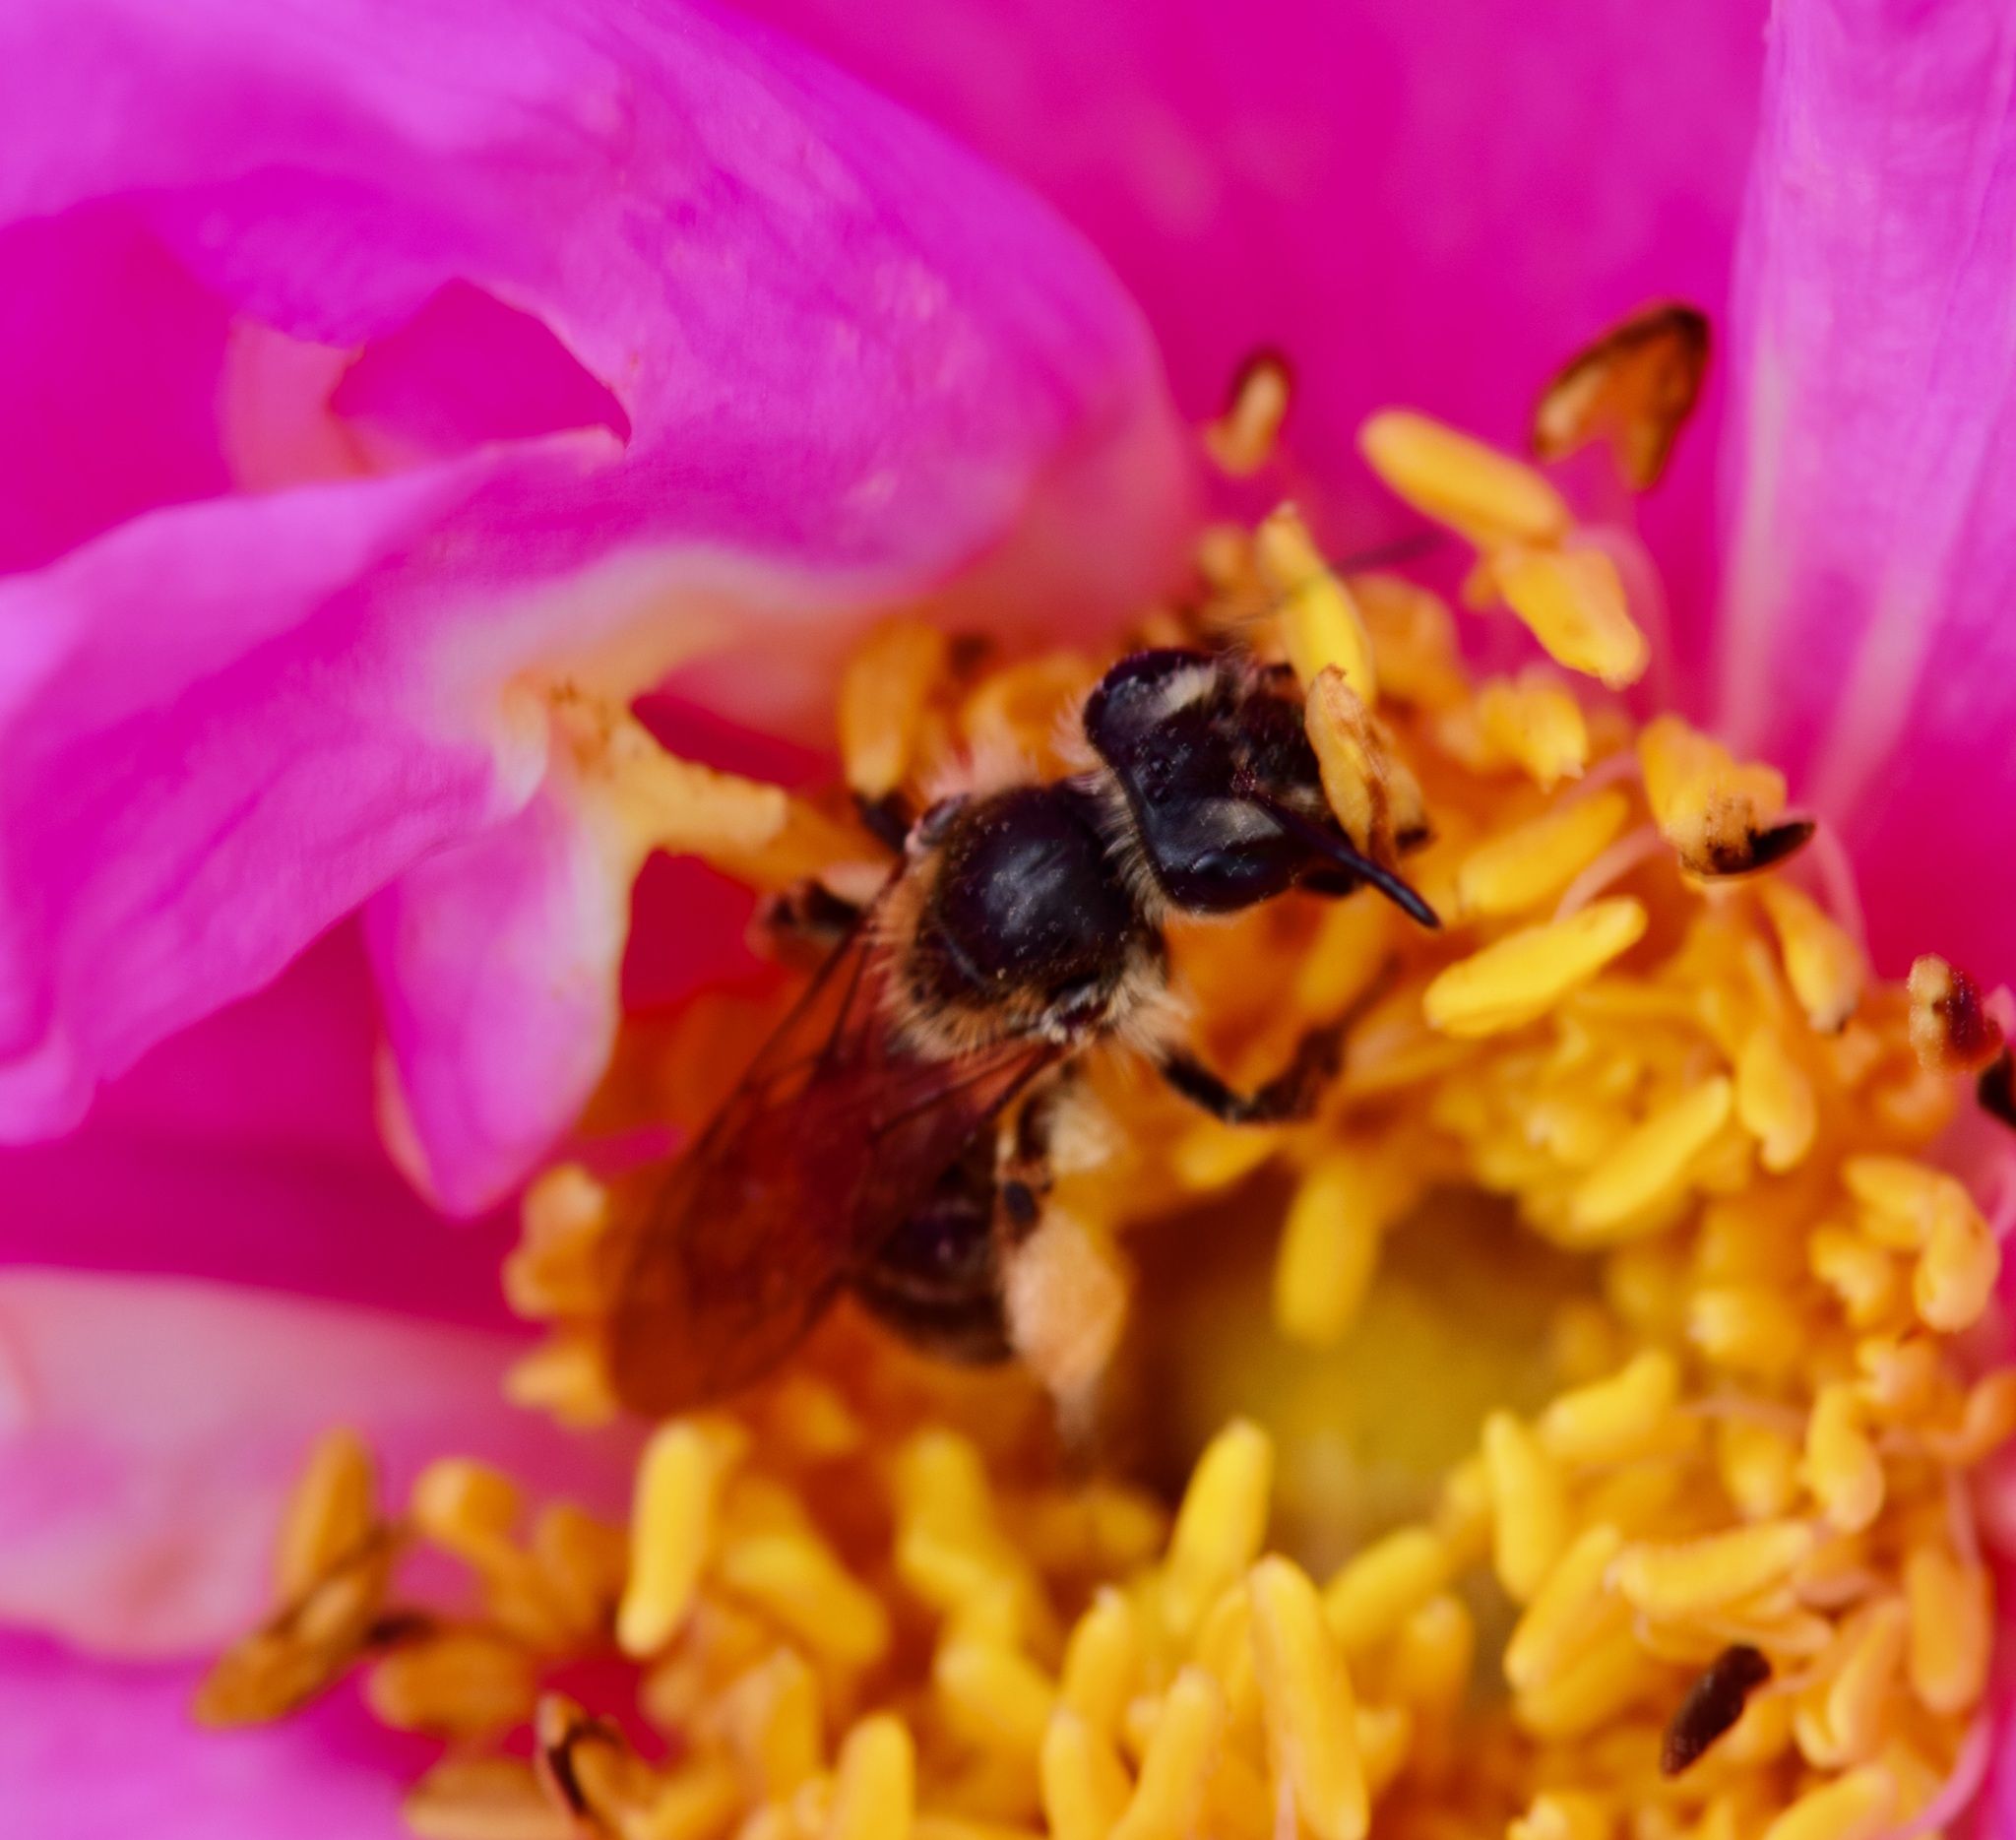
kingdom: Animalia
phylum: Arthropoda
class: Insecta
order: Hymenoptera
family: Andrenidae
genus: Andrena
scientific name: Andrena thaspii
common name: Parsnip miner bee
